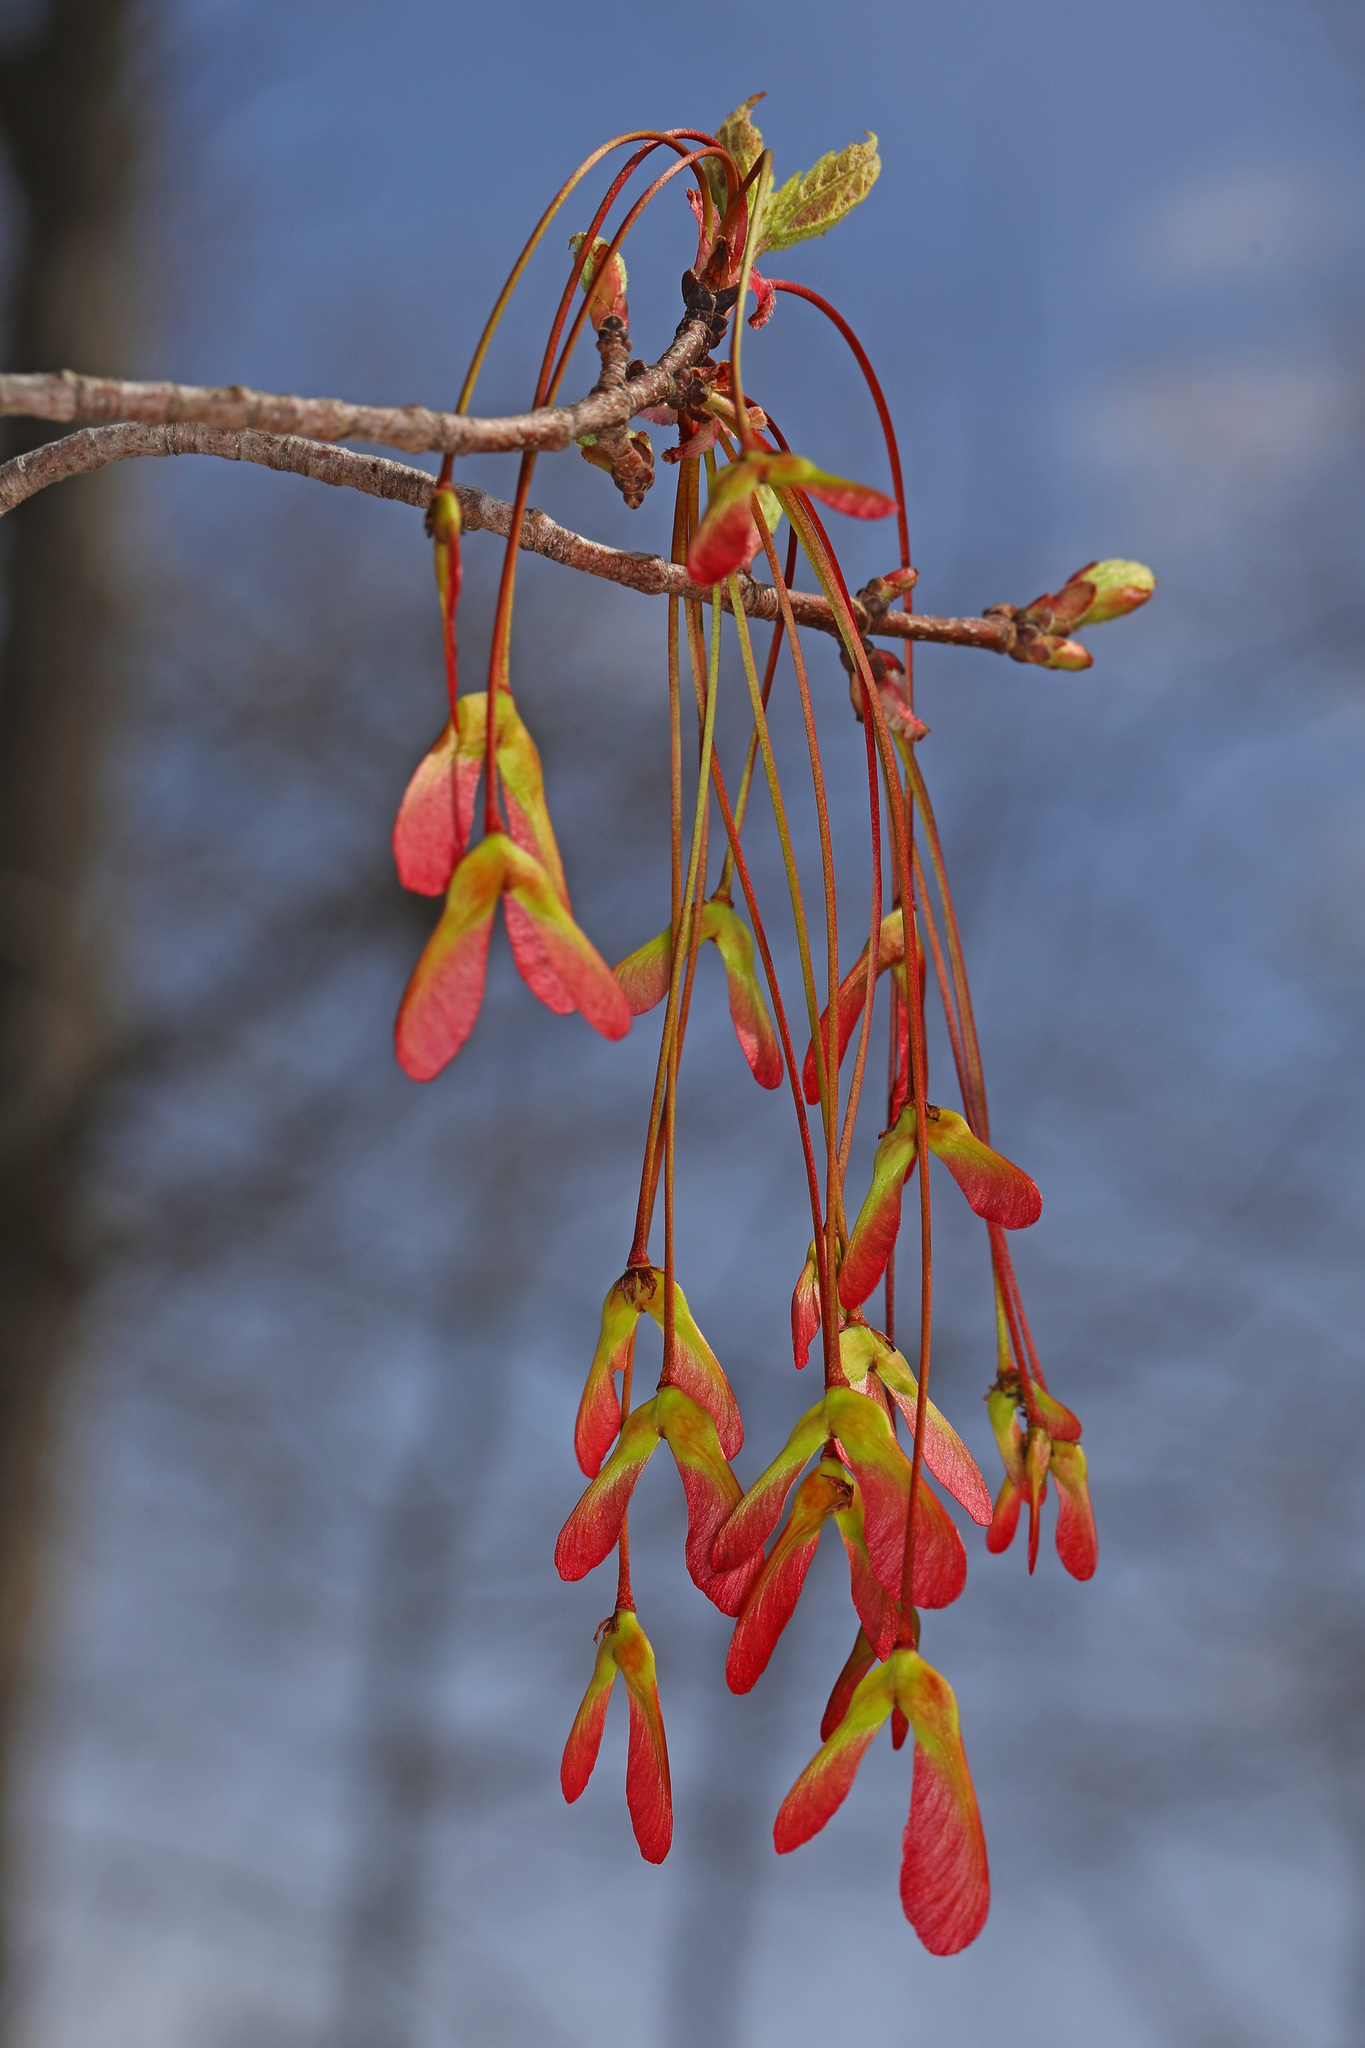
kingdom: Plantae
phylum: Tracheophyta
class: Magnoliopsida
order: Sapindales
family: Sapindaceae
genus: Acer
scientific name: Acer rubrum
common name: Red maple
